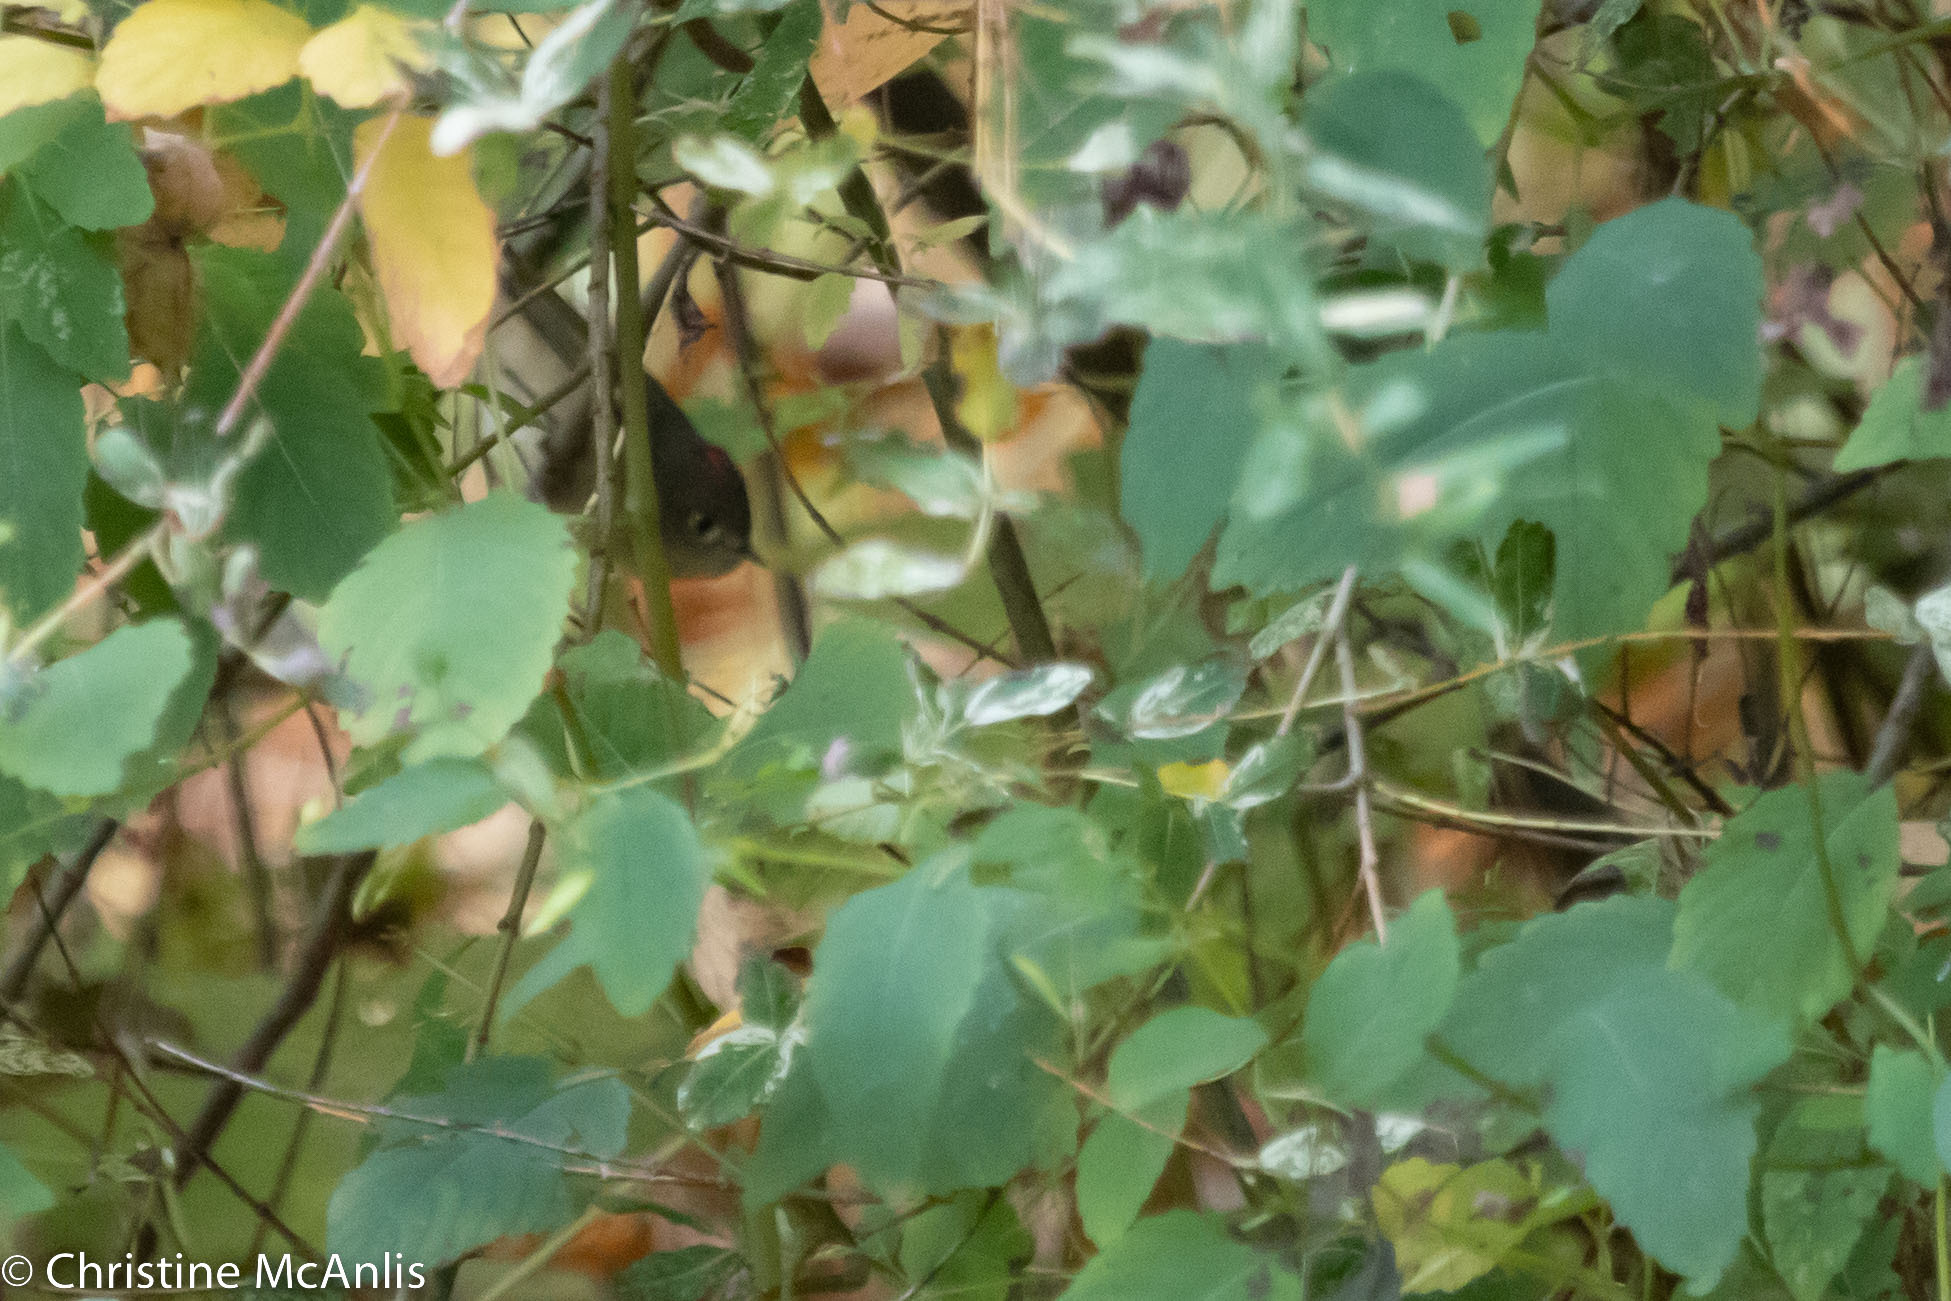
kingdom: Animalia
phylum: Chordata
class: Aves
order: Passeriformes
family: Regulidae
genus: Regulus
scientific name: Regulus calendula
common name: Ruby-crowned kinglet
